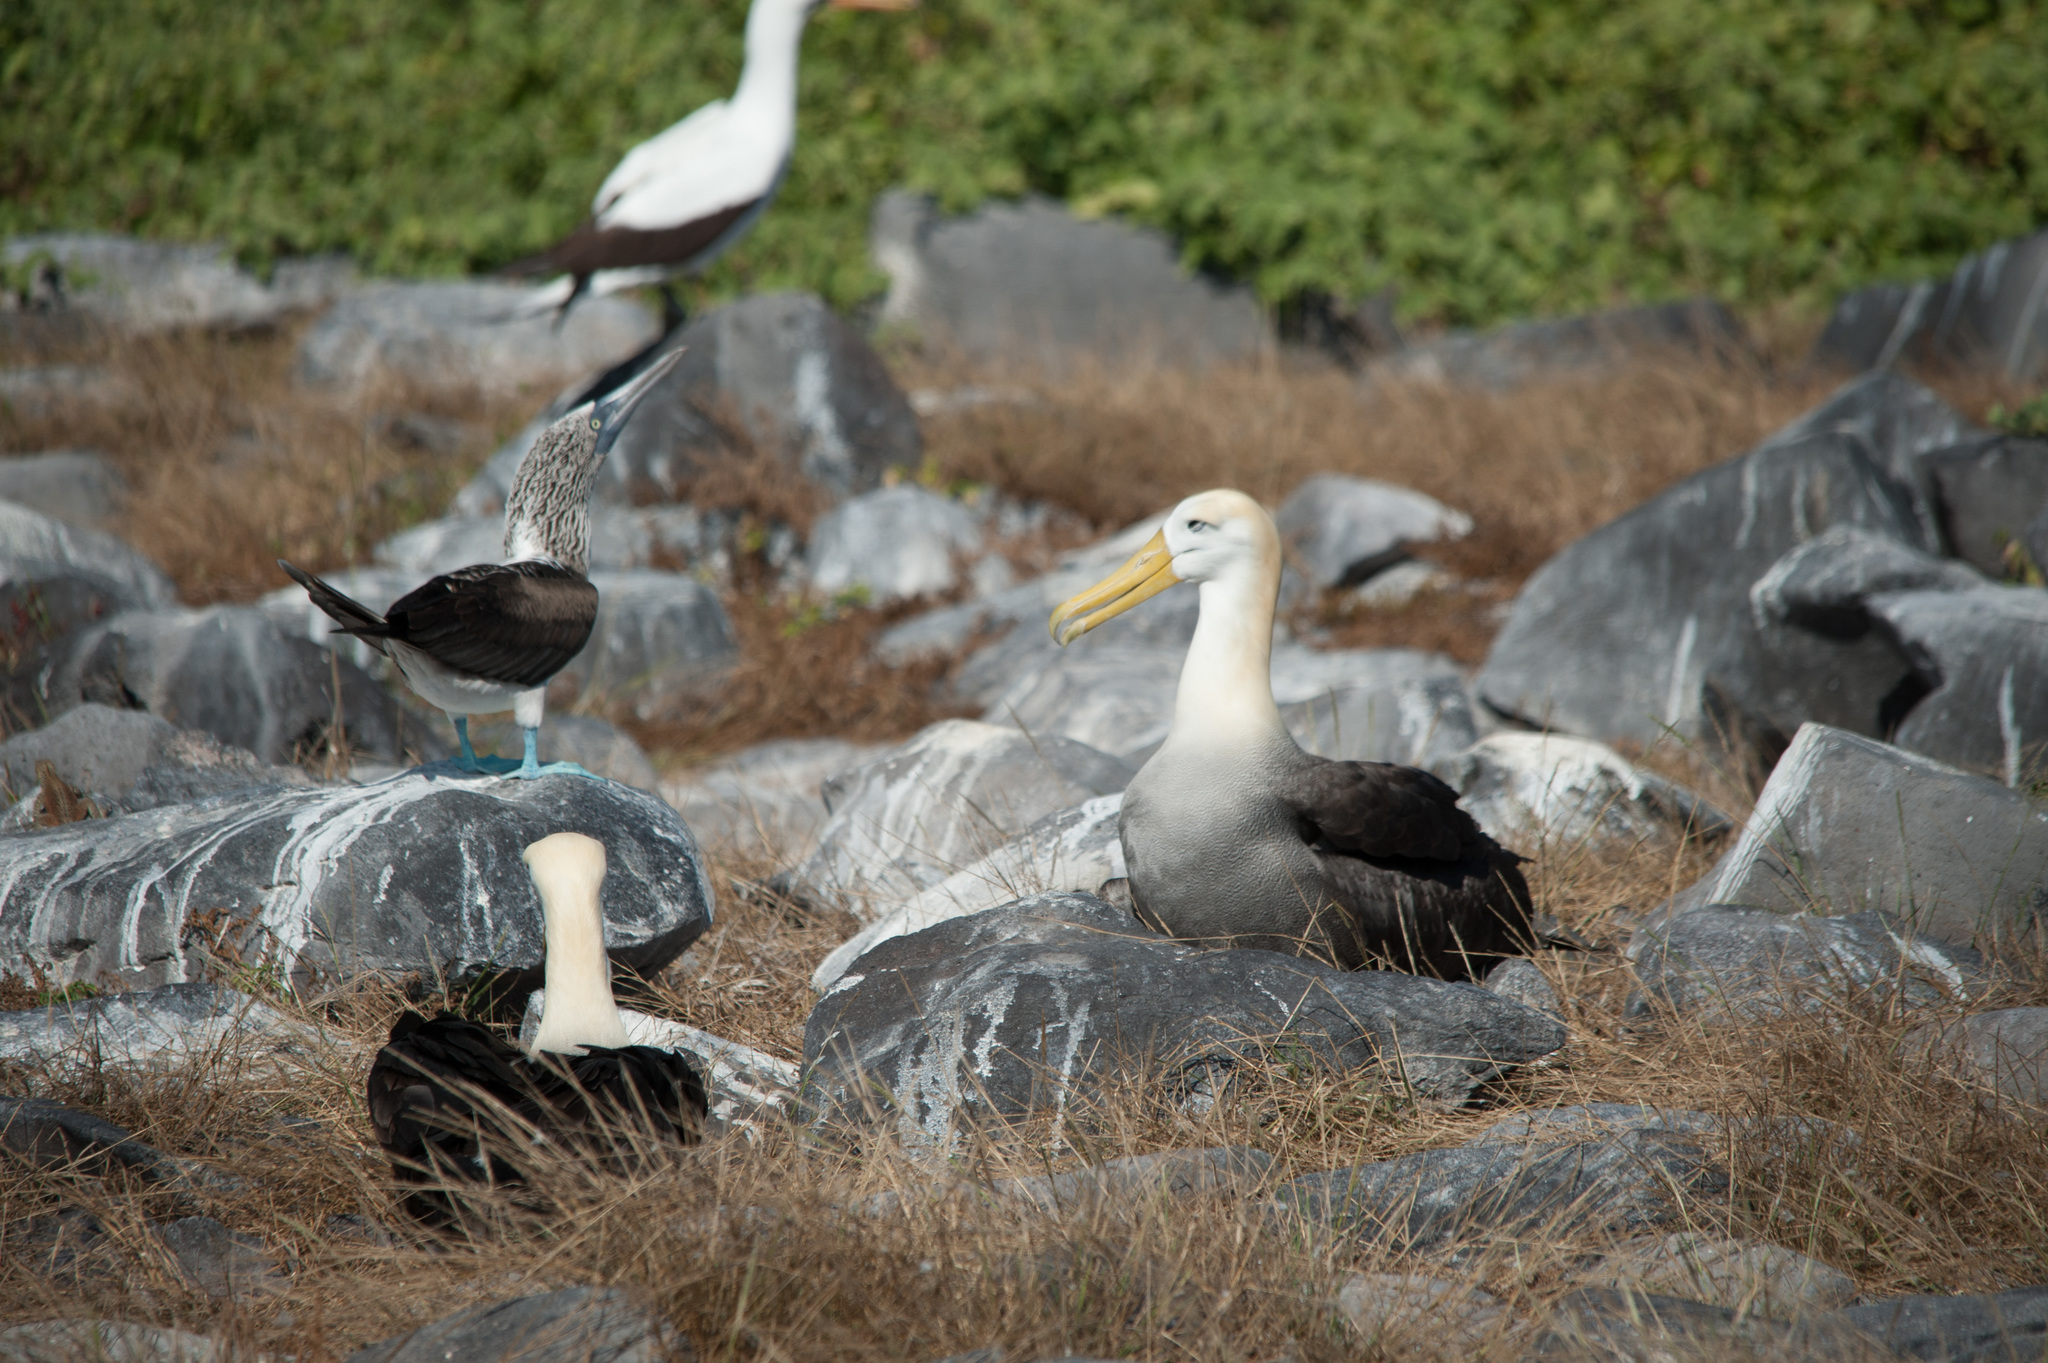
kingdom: Animalia
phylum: Chordata
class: Aves
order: Procellariiformes
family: Diomedeidae
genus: Phoebastria
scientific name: Phoebastria irrorata
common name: Waved albatross
